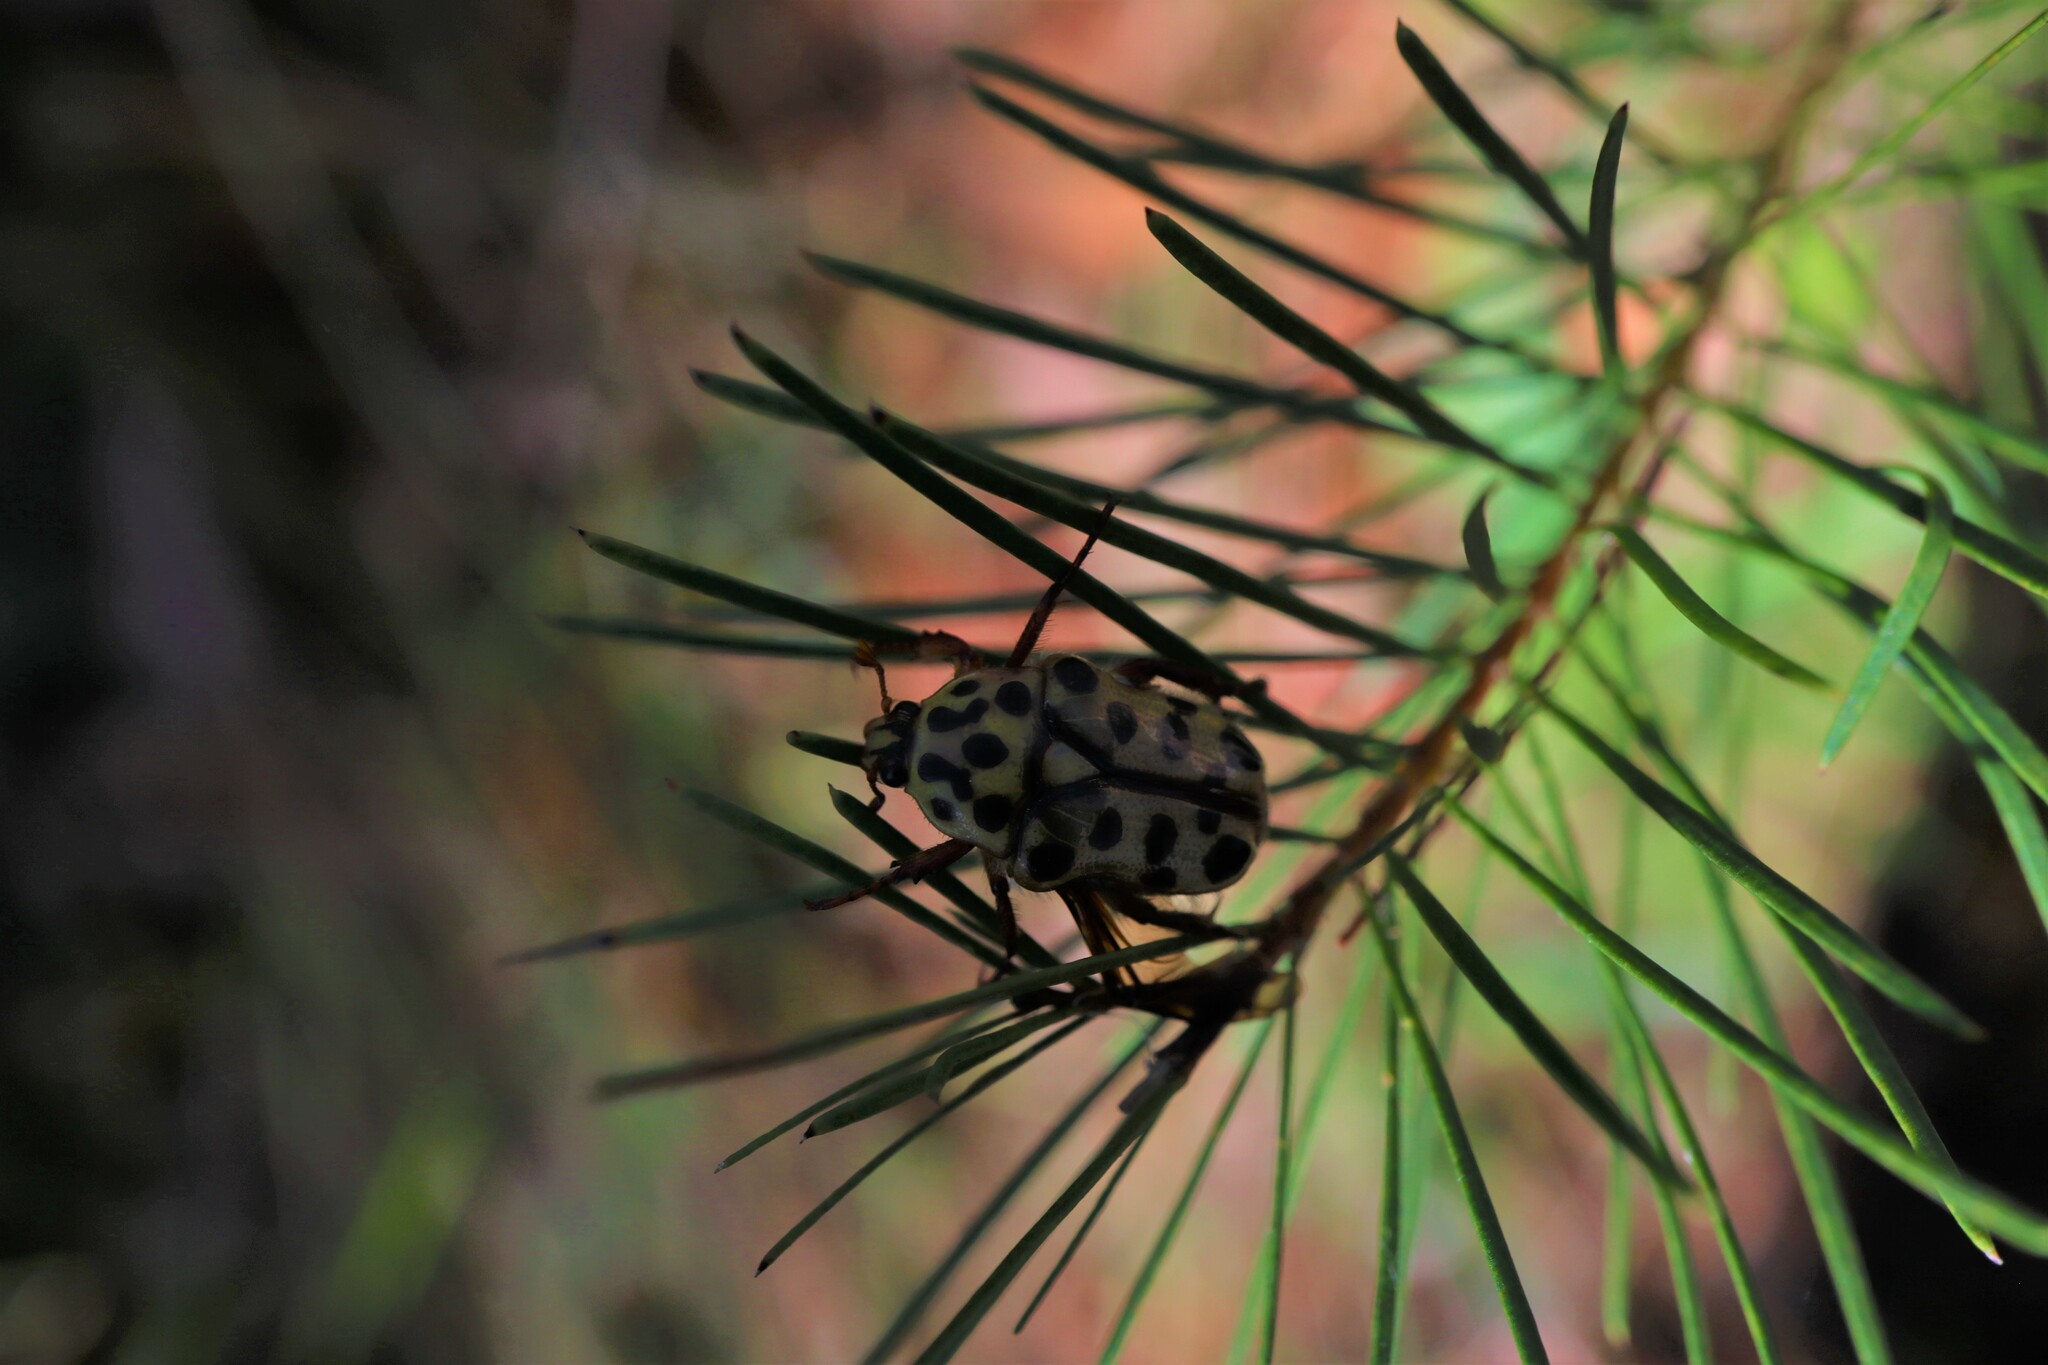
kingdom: Animalia
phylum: Arthropoda
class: Insecta
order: Coleoptera
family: Scarabaeidae
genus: Neorrhina
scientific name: Neorrhina punctatum
